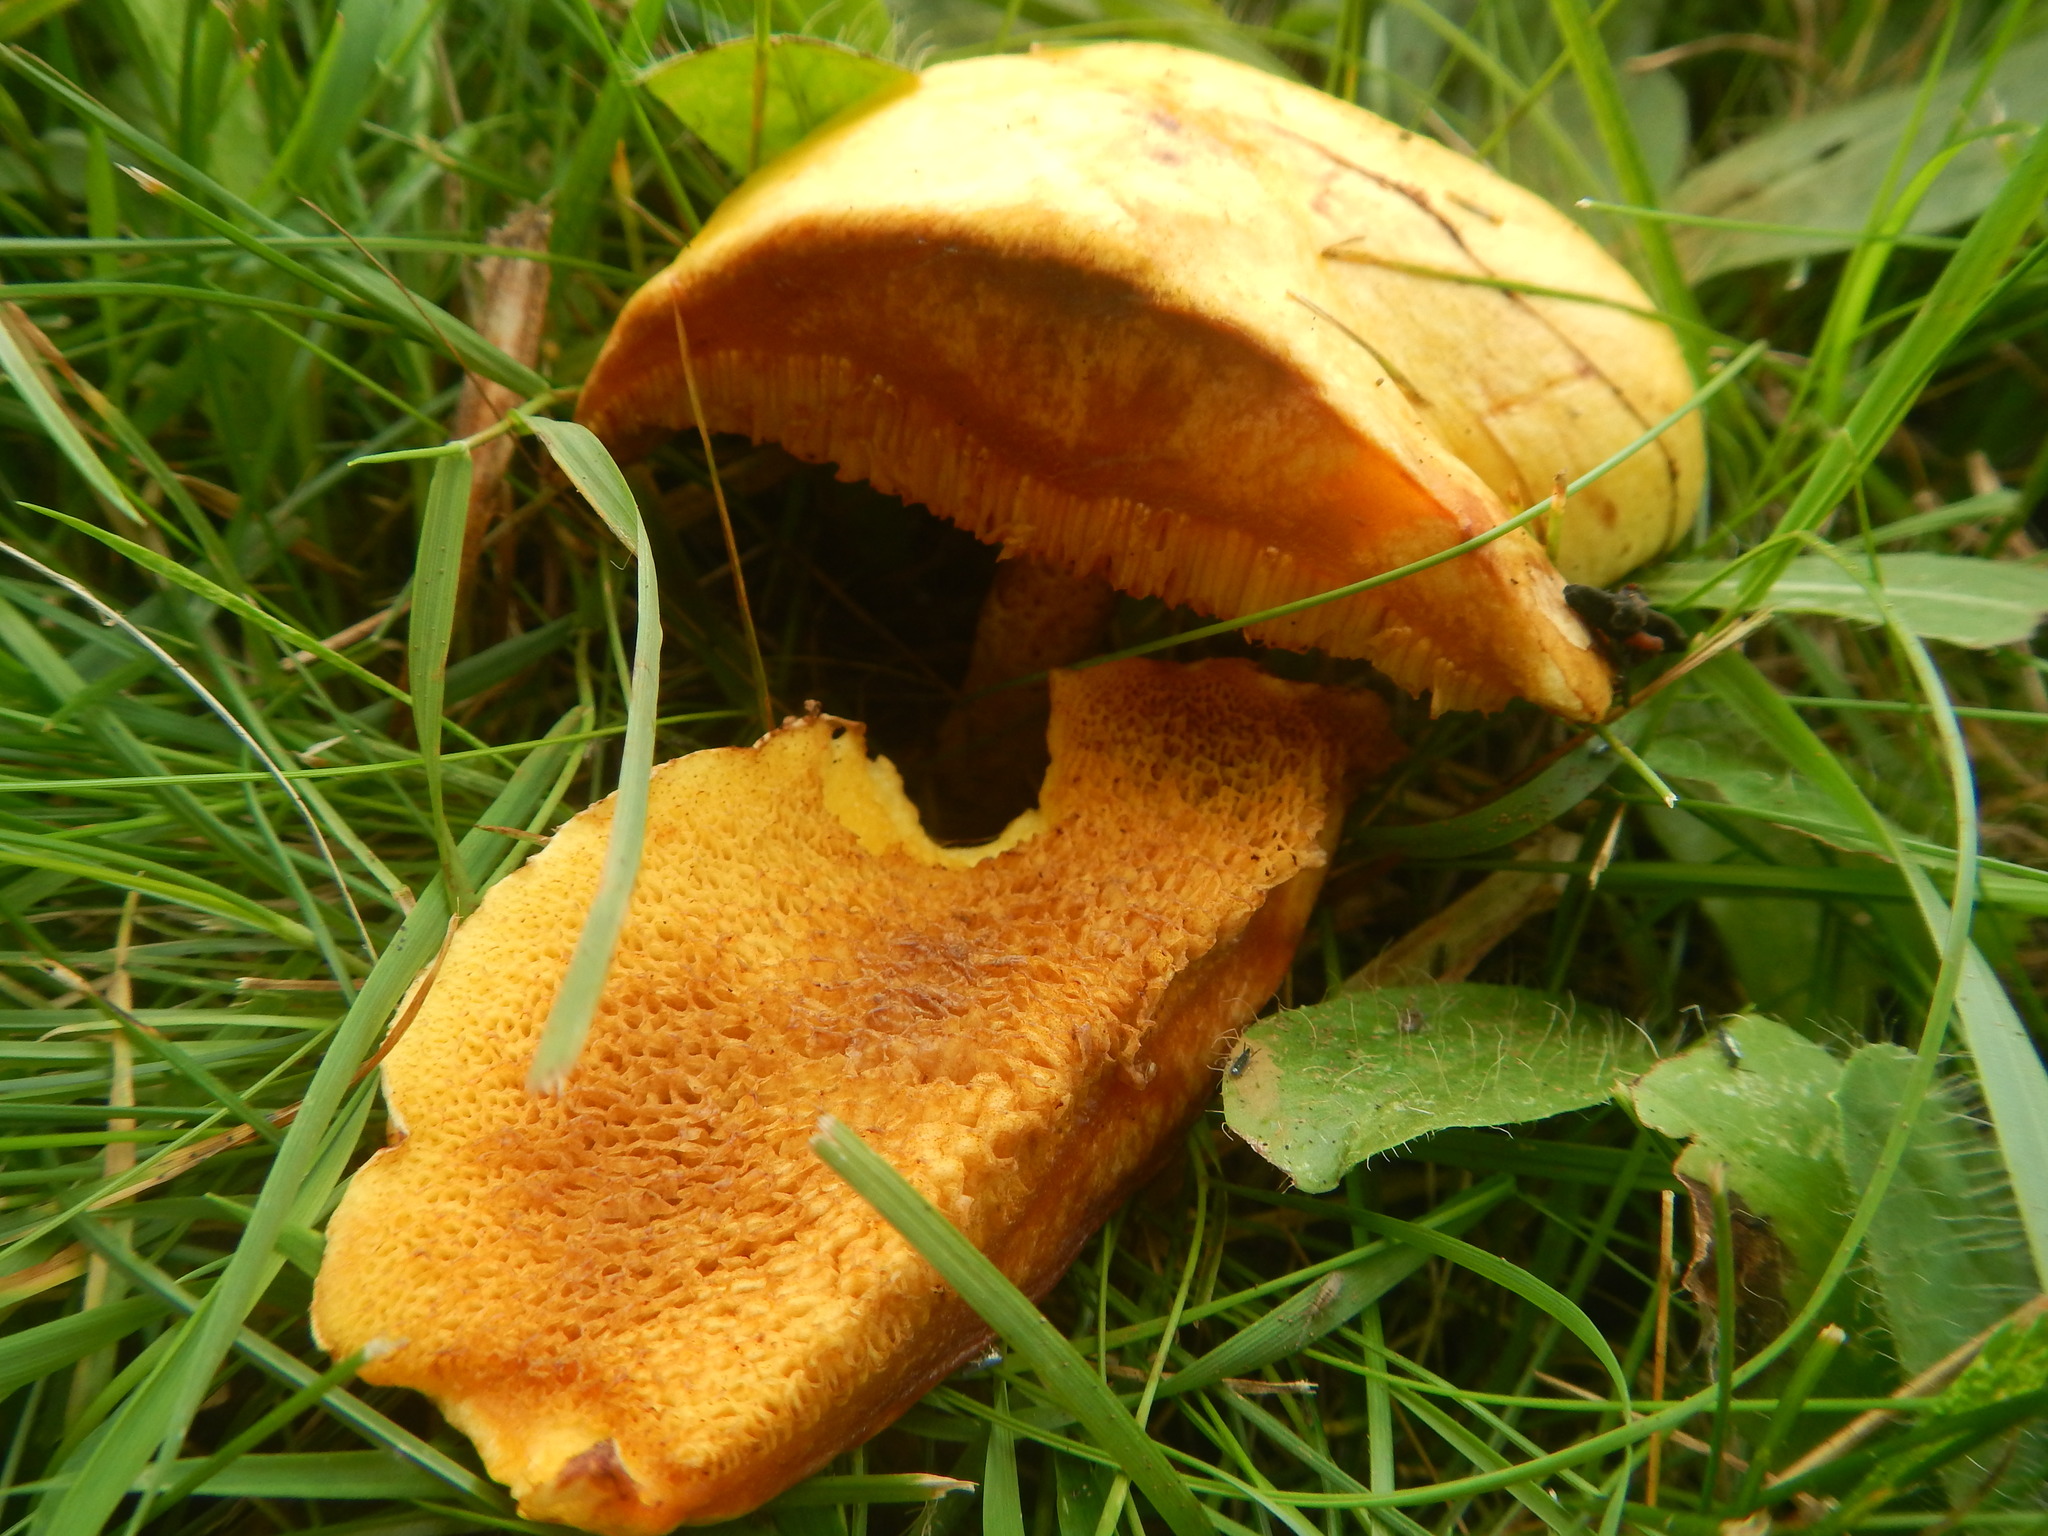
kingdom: Fungi
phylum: Basidiomycota
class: Agaricomycetes
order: Boletales
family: Suillaceae
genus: Suillus
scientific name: Suillus americanus
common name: Chicken fat mushroom
